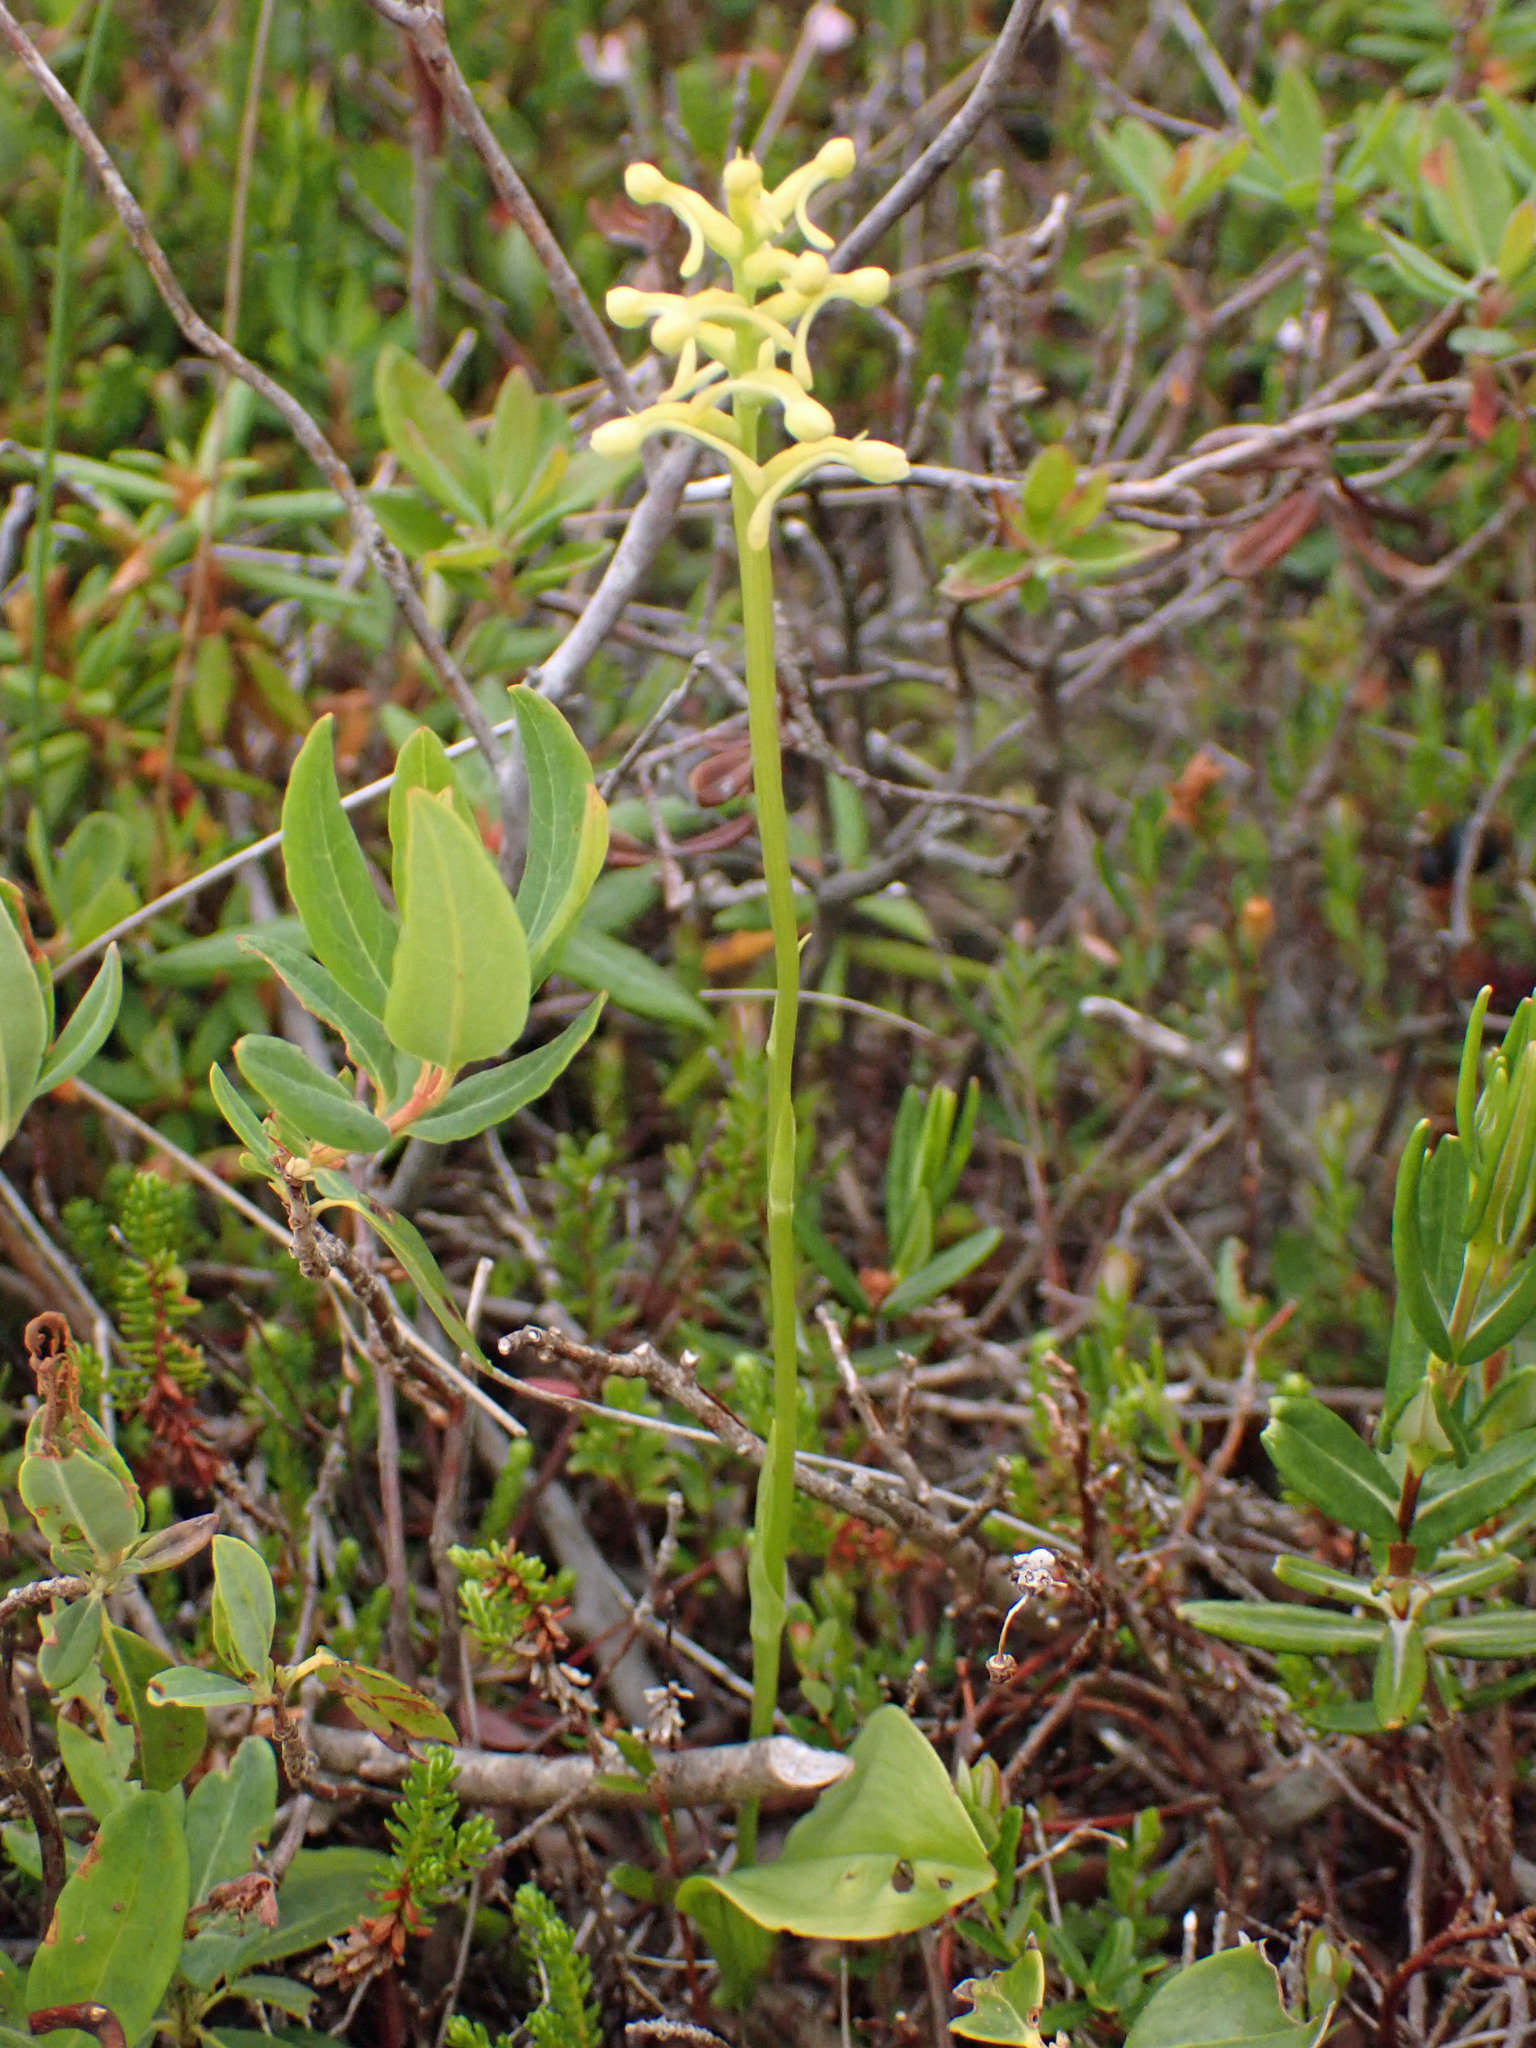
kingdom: Plantae
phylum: Tracheophyta
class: Liliopsida
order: Asparagales
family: Orchidaceae
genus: Platanthera
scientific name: Platanthera clavellata
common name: Club-spur orchid
